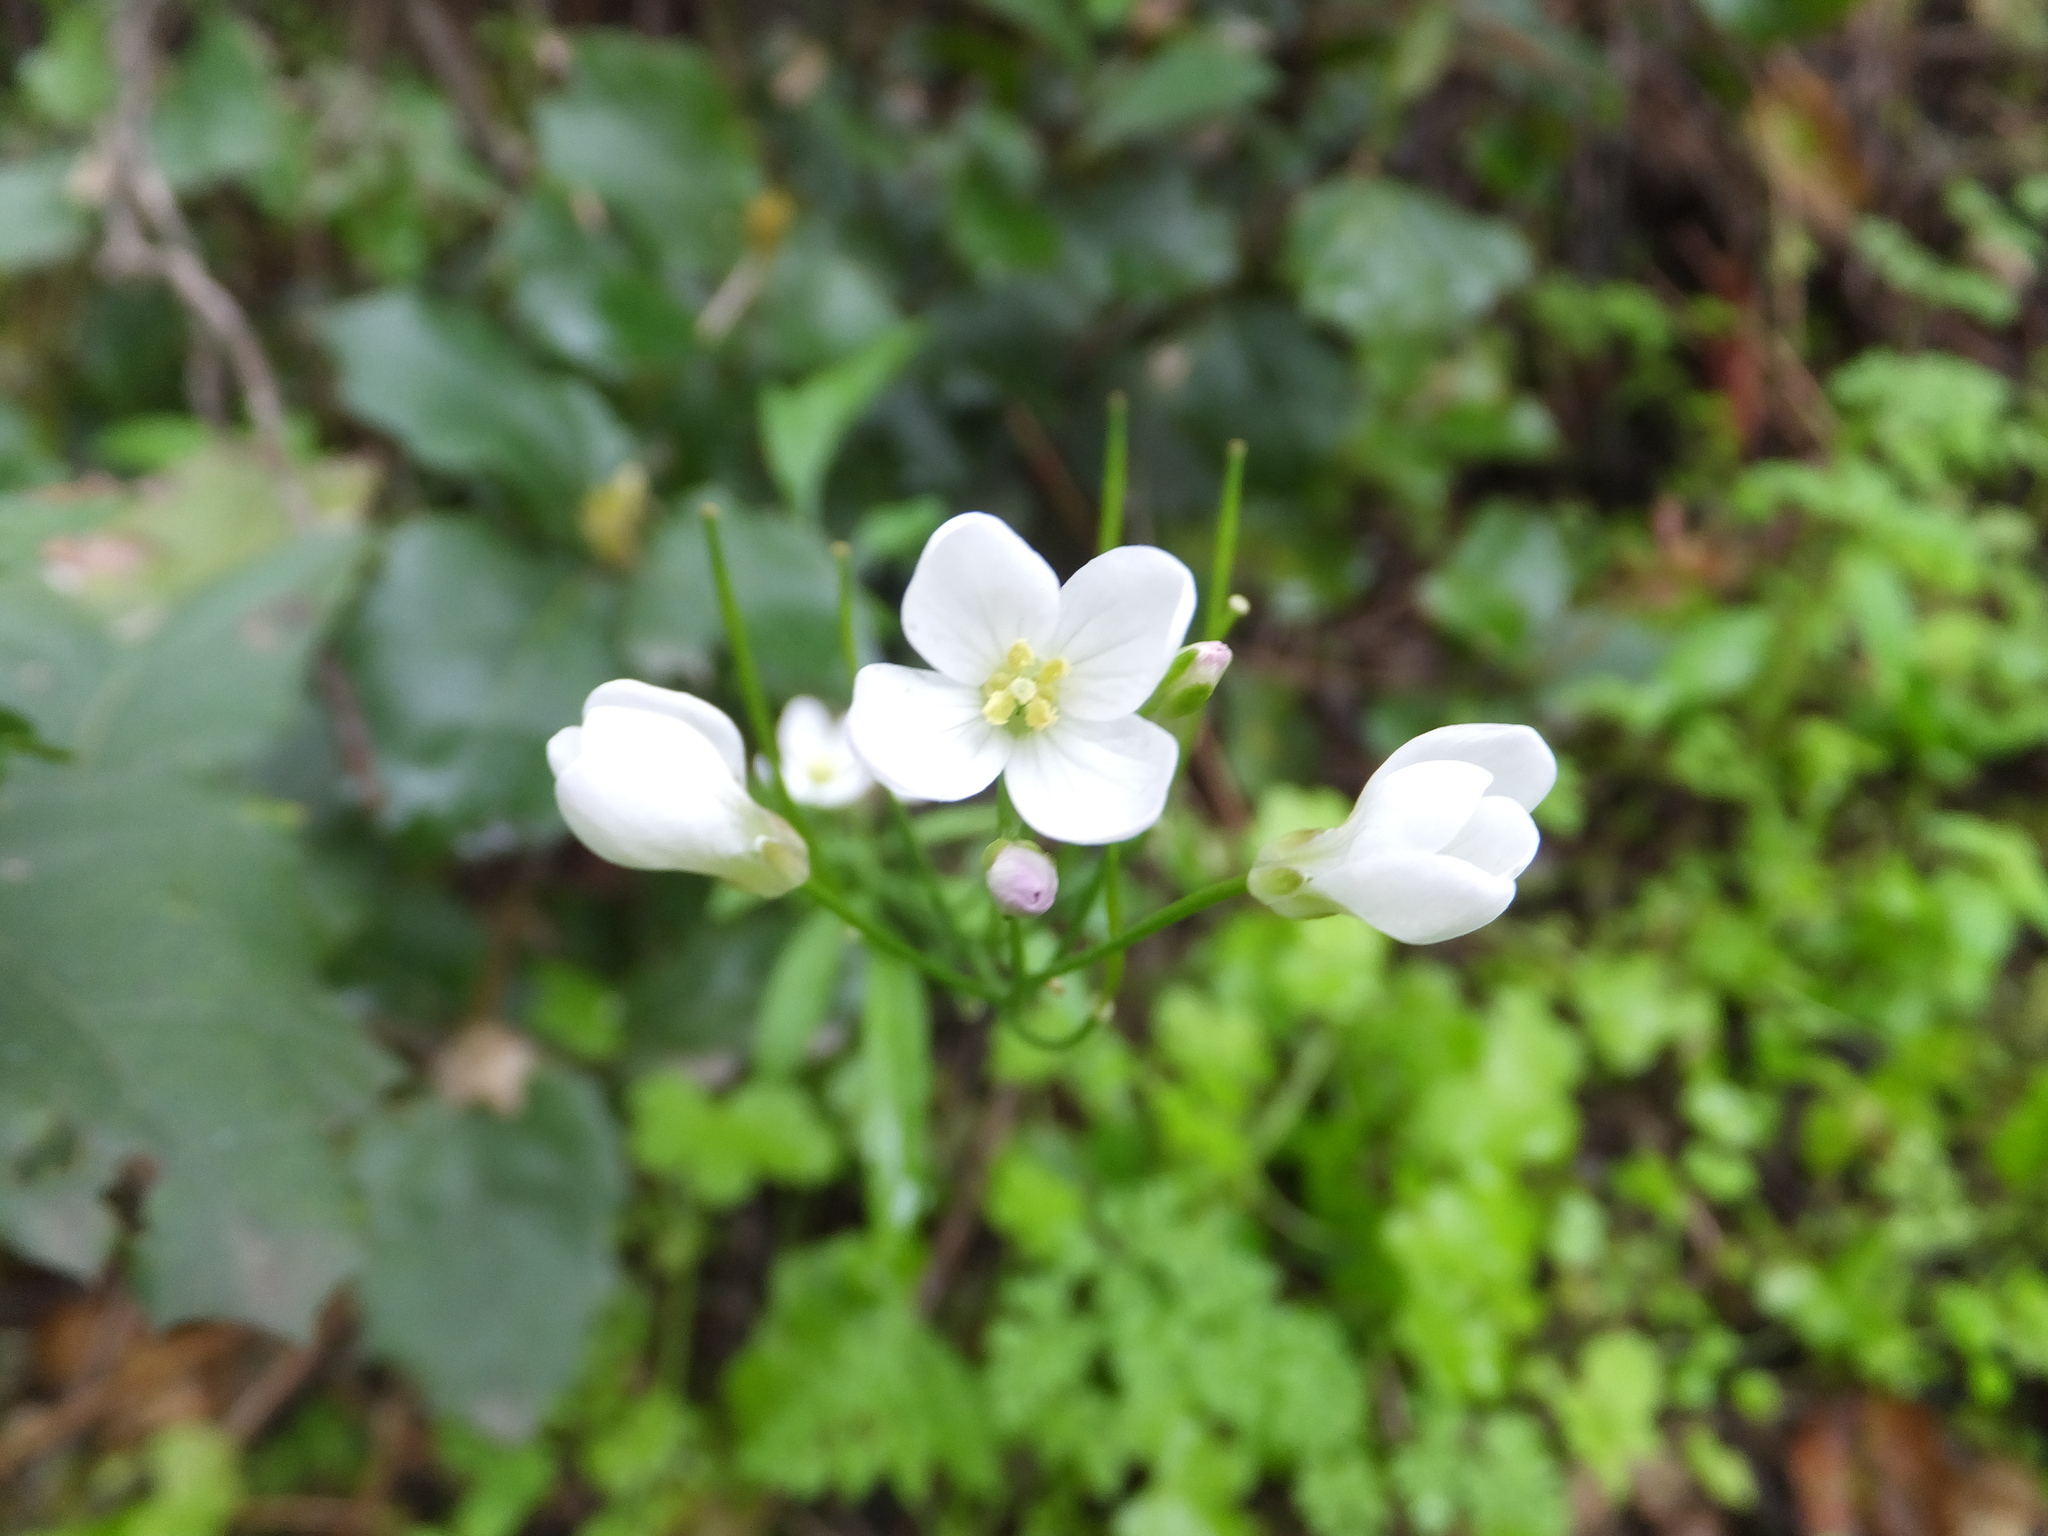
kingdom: Plantae
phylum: Tracheophyta
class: Magnoliopsida
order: Brassicales
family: Brassicaceae
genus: Cardamine
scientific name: Cardamine californica
